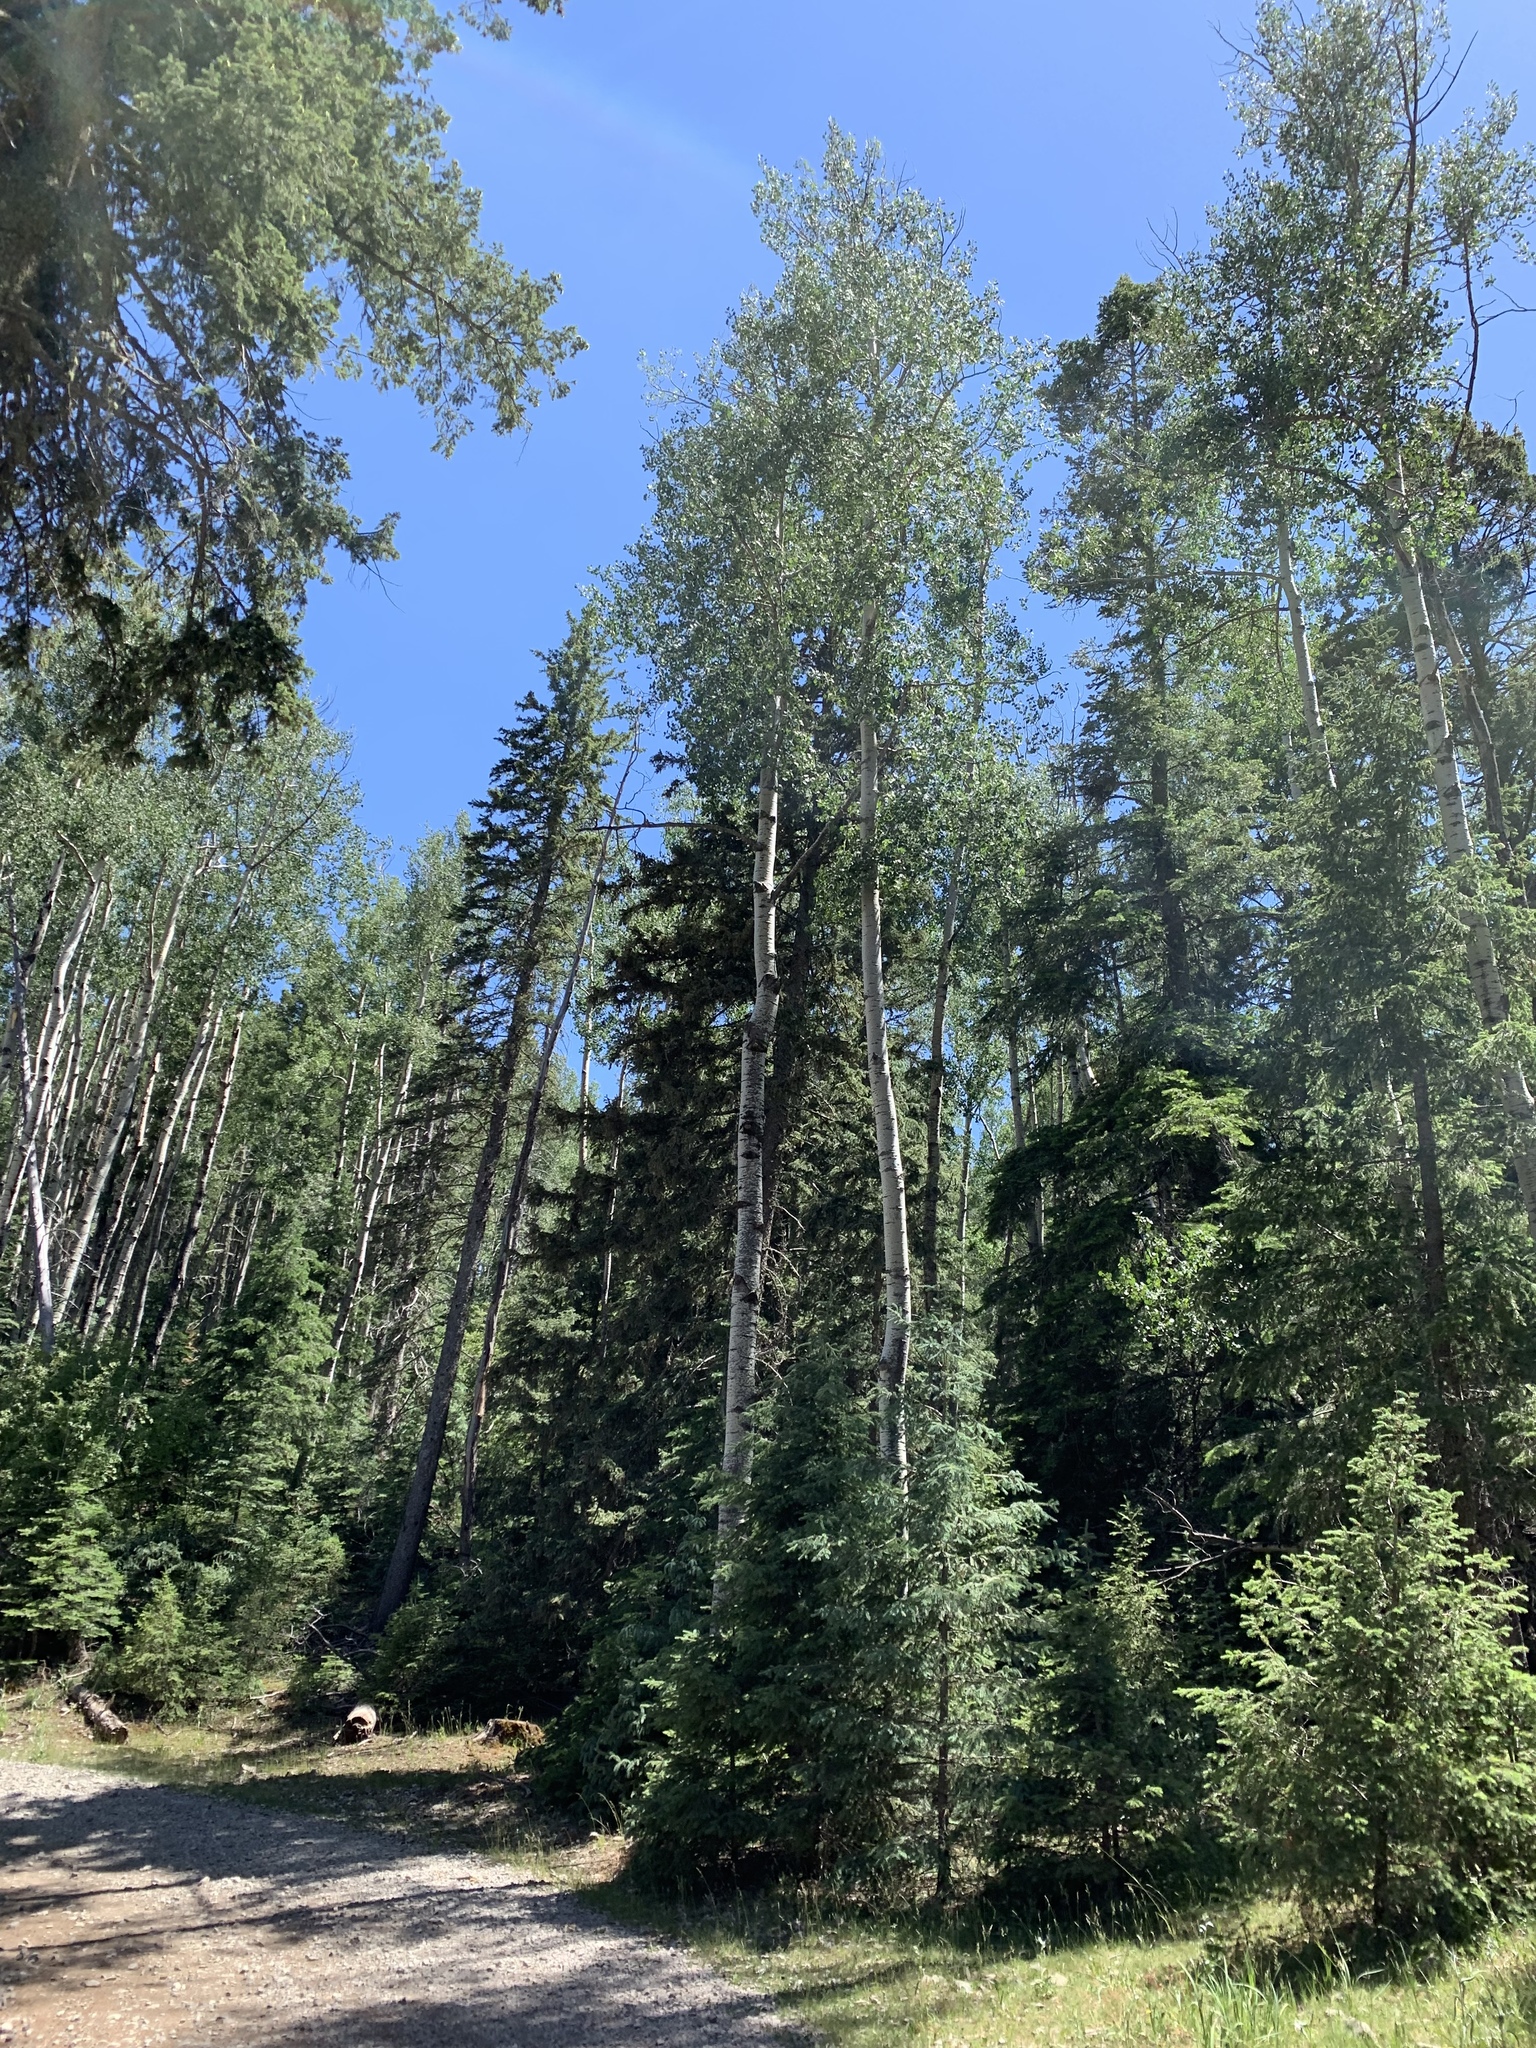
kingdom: Plantae
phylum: Tracheophyta
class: Magnoliopsida
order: Malpighiales
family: Salicaceae
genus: Populus
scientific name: Populus tremuloides
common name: Quaking aspen
